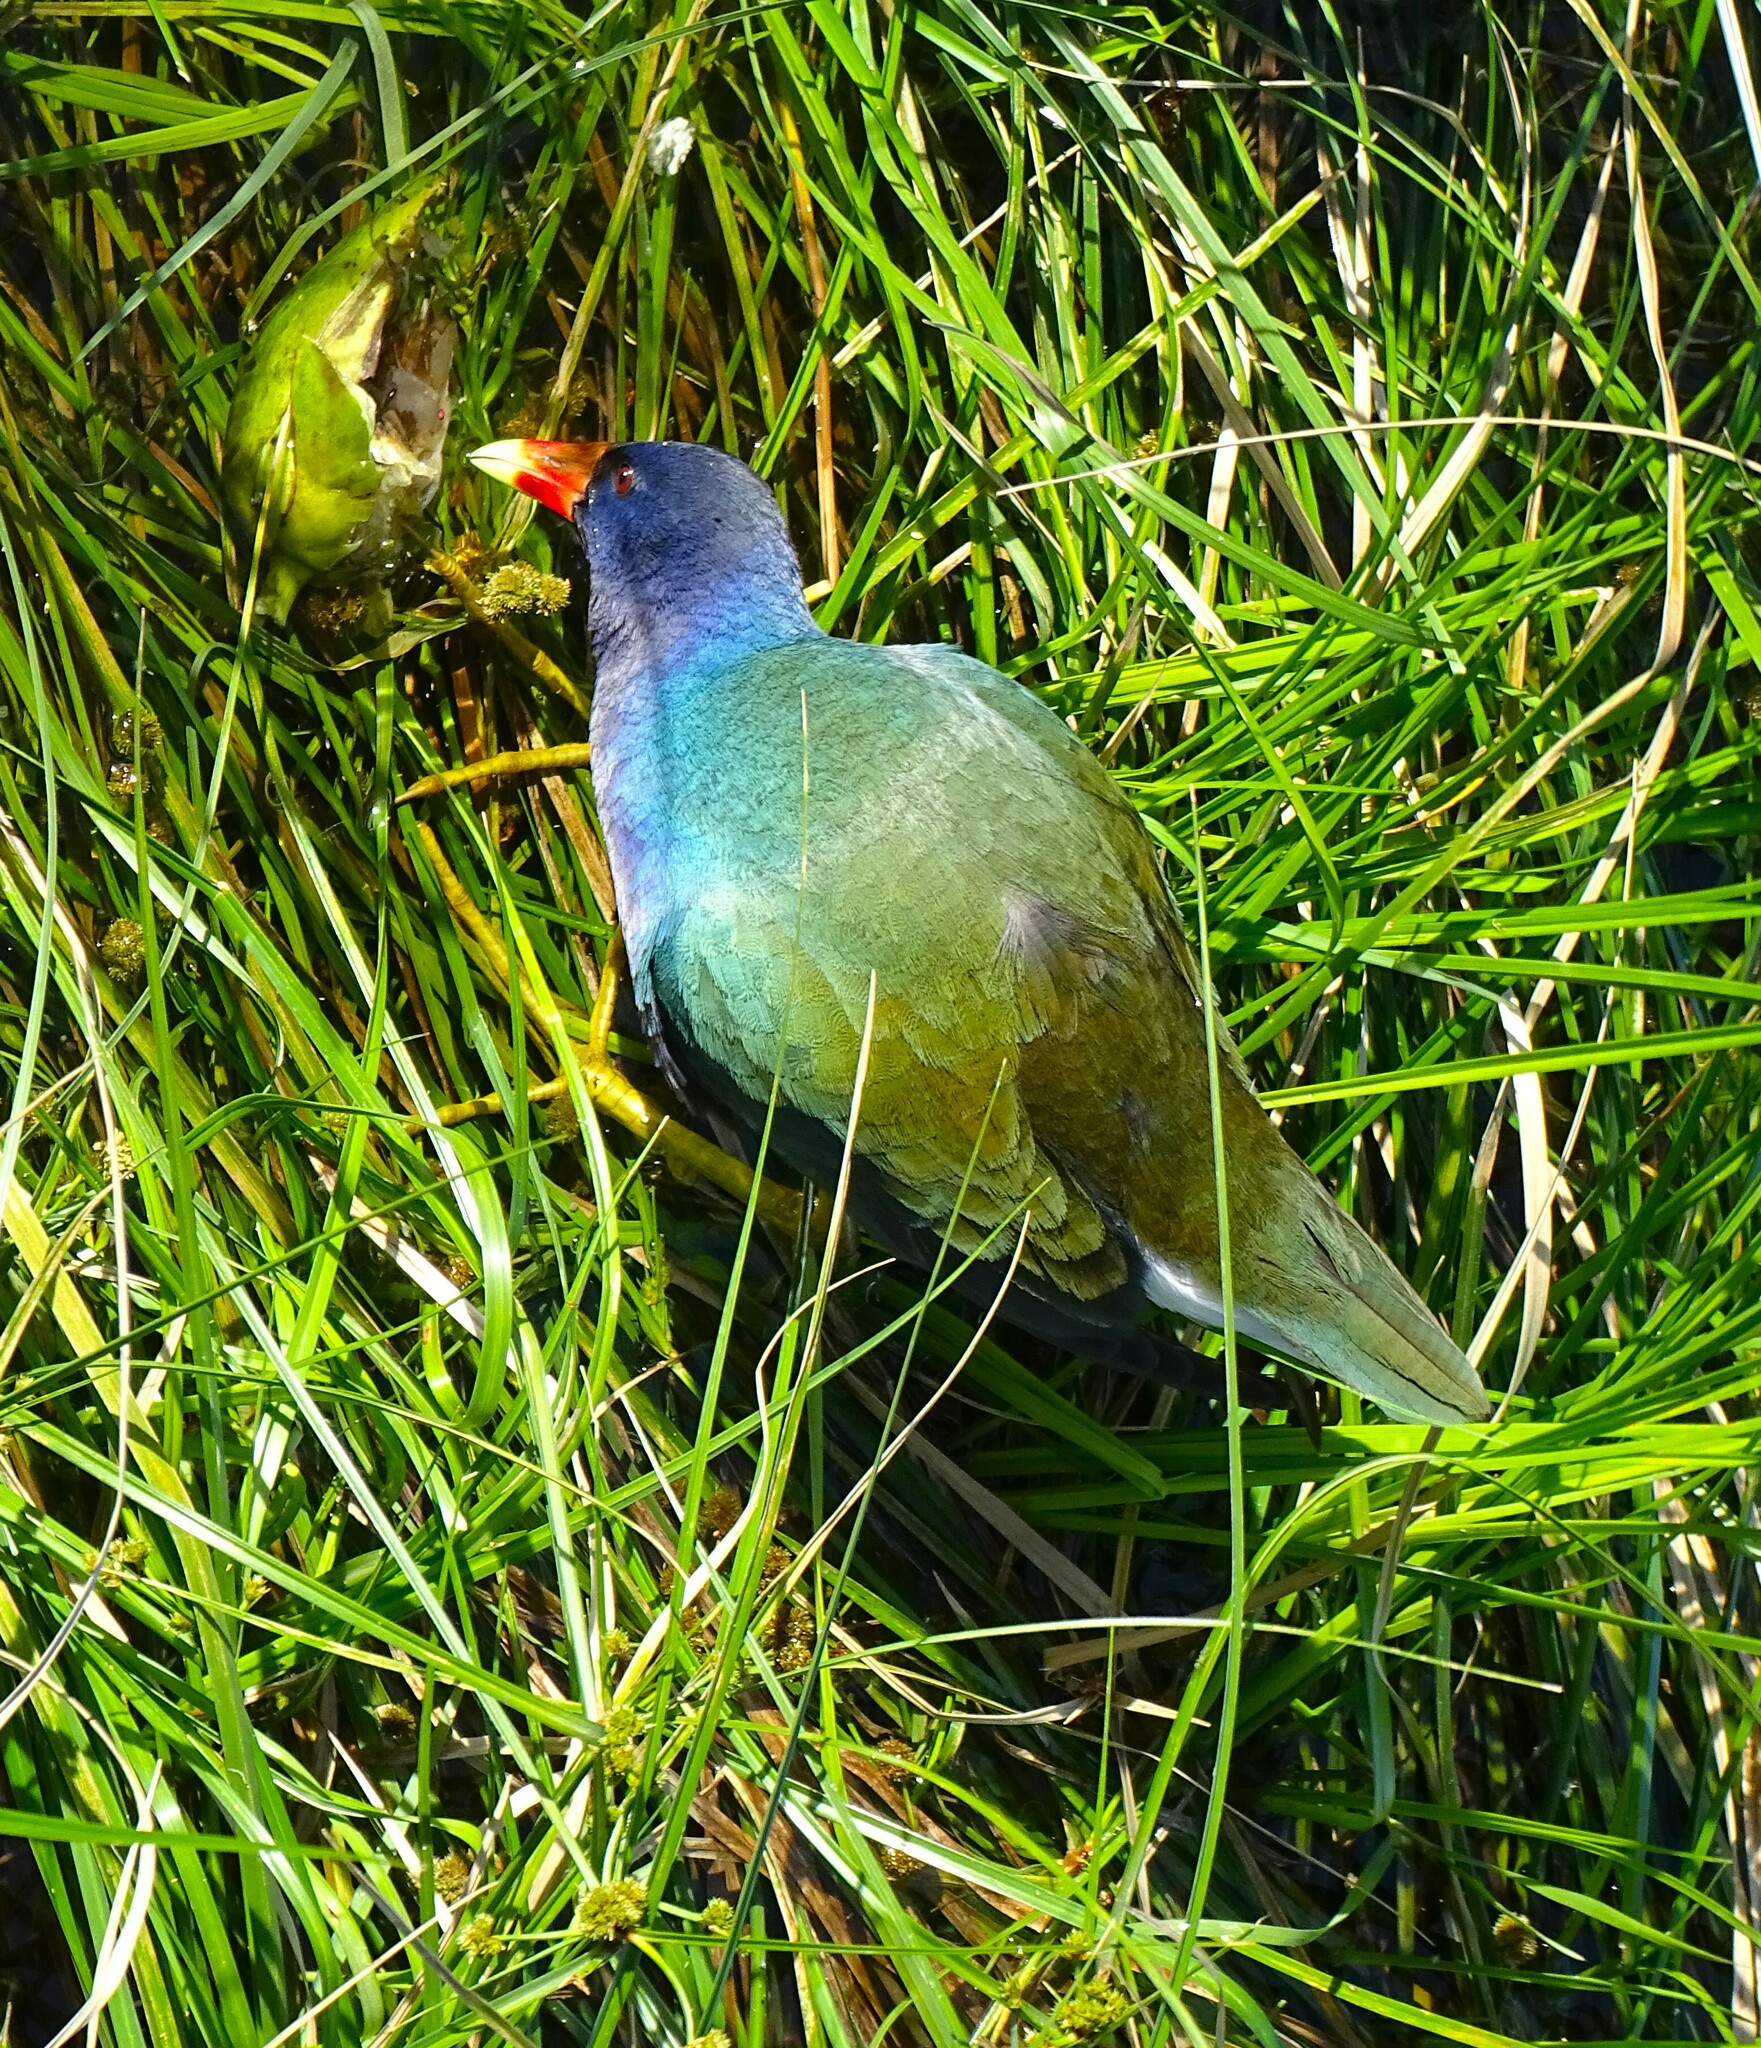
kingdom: Animalia
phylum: Chordata
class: Aves
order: Gruiformes
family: Rallidae
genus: Porphyrio
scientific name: Porphyrio martinica
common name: Purple gallinule
